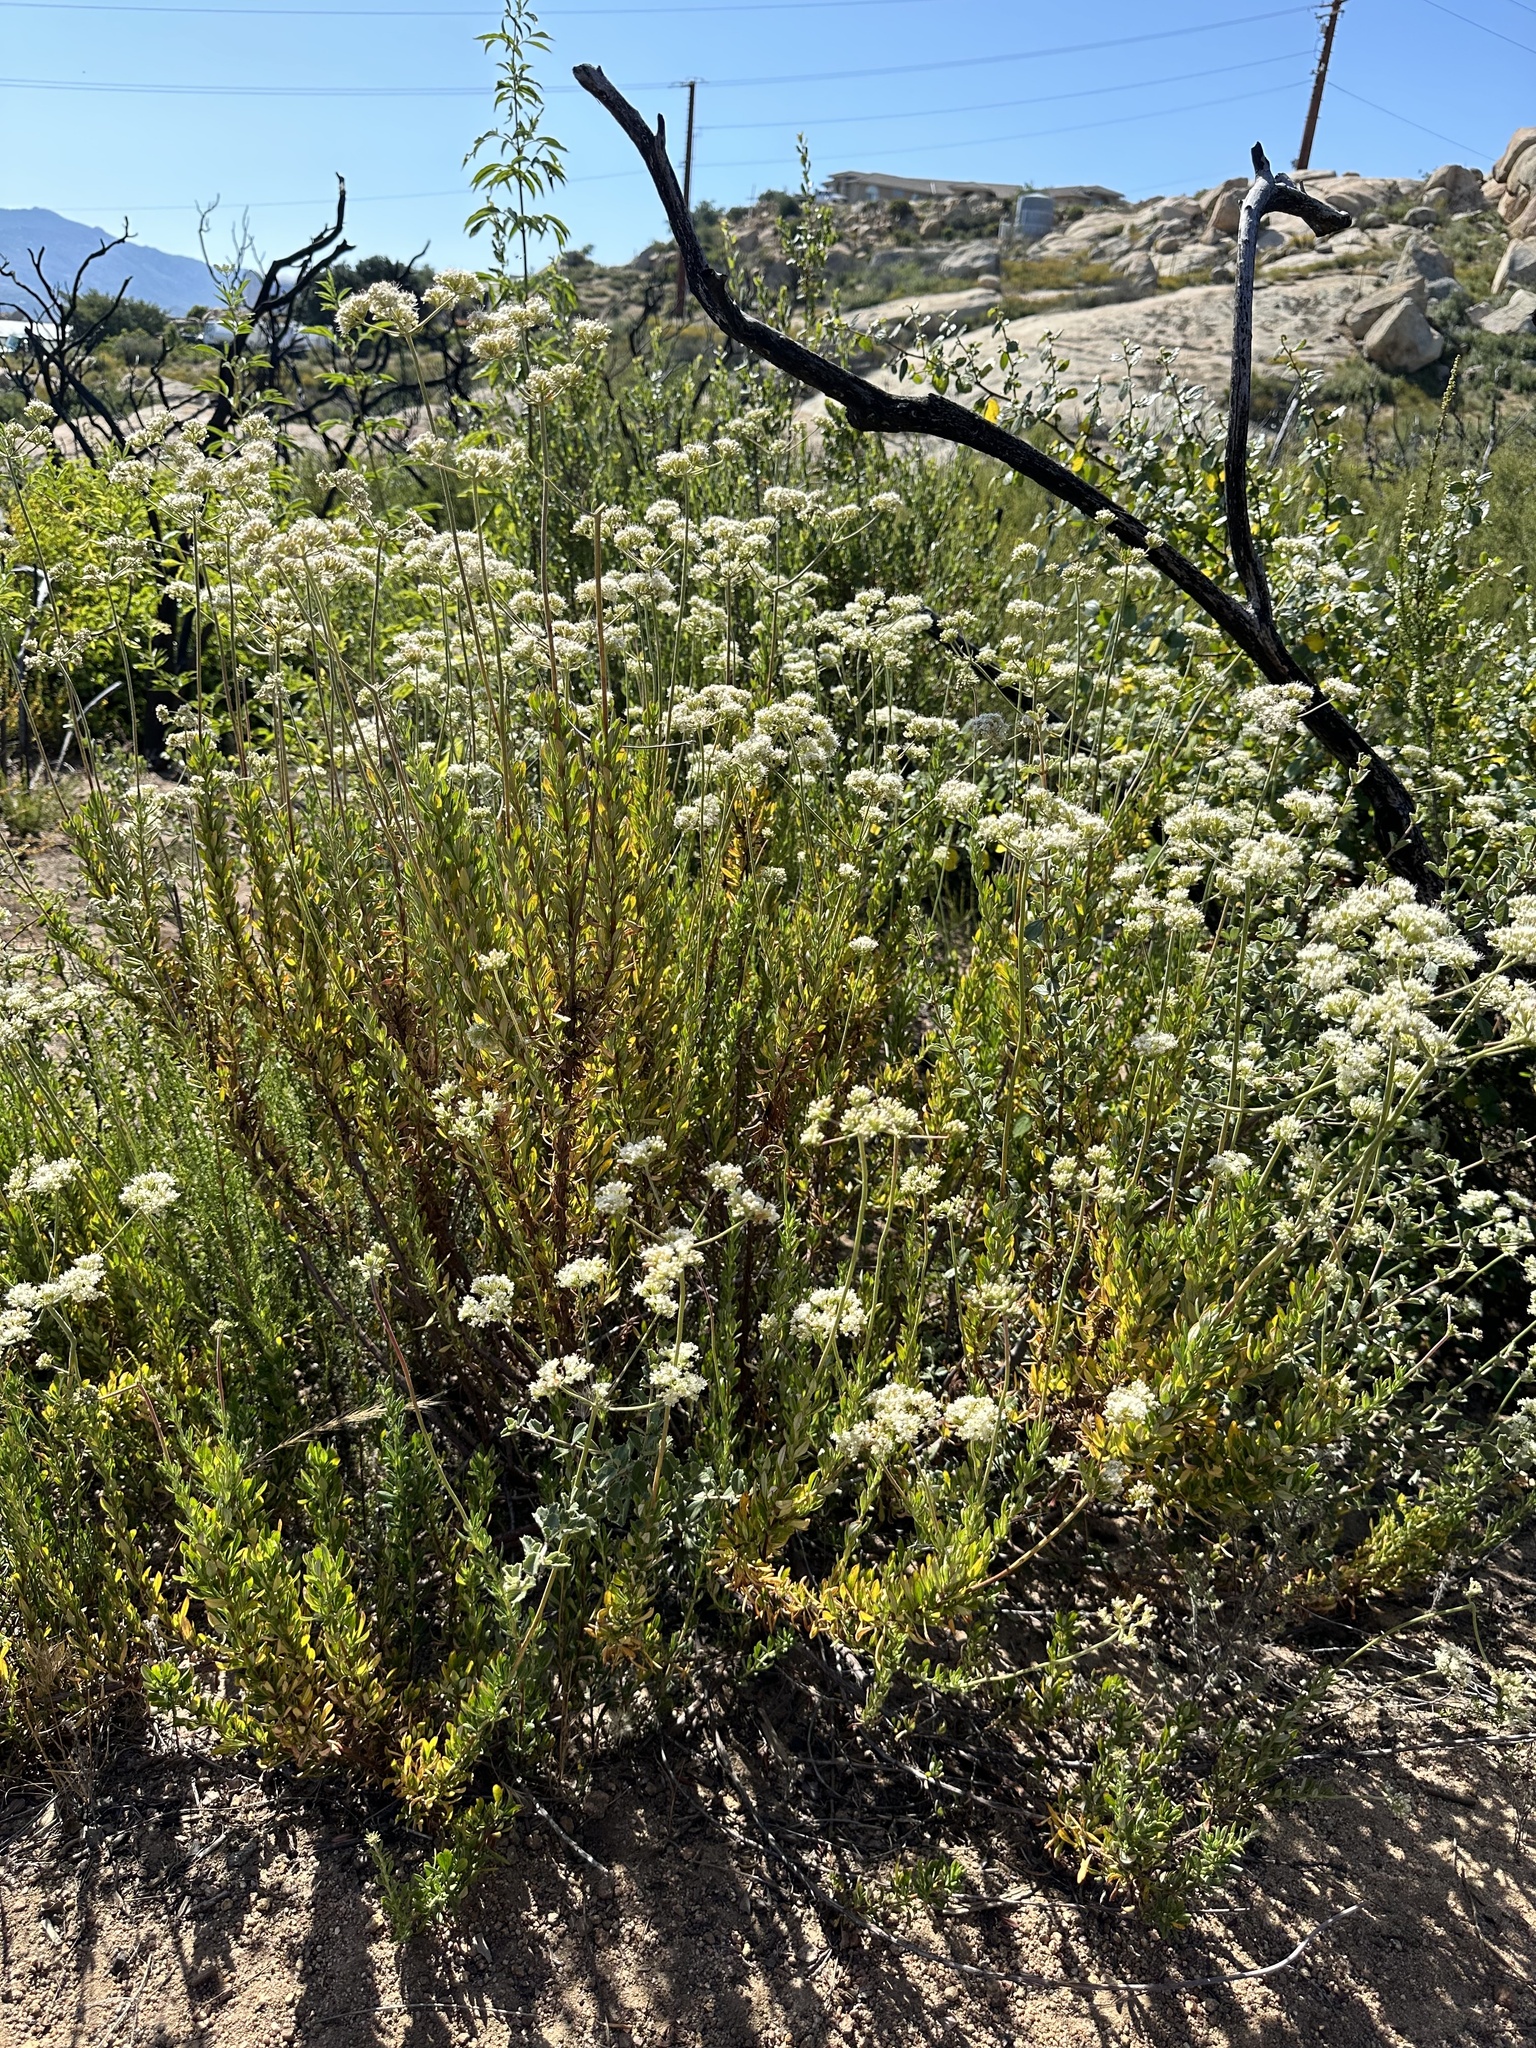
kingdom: Plantae
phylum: Tracheophyta
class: Magnoliopsida
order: Caryophyllales
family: Polygonaceae
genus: Eriogonum
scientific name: Eriogonum fasciculatum
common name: California wild buckwheat
